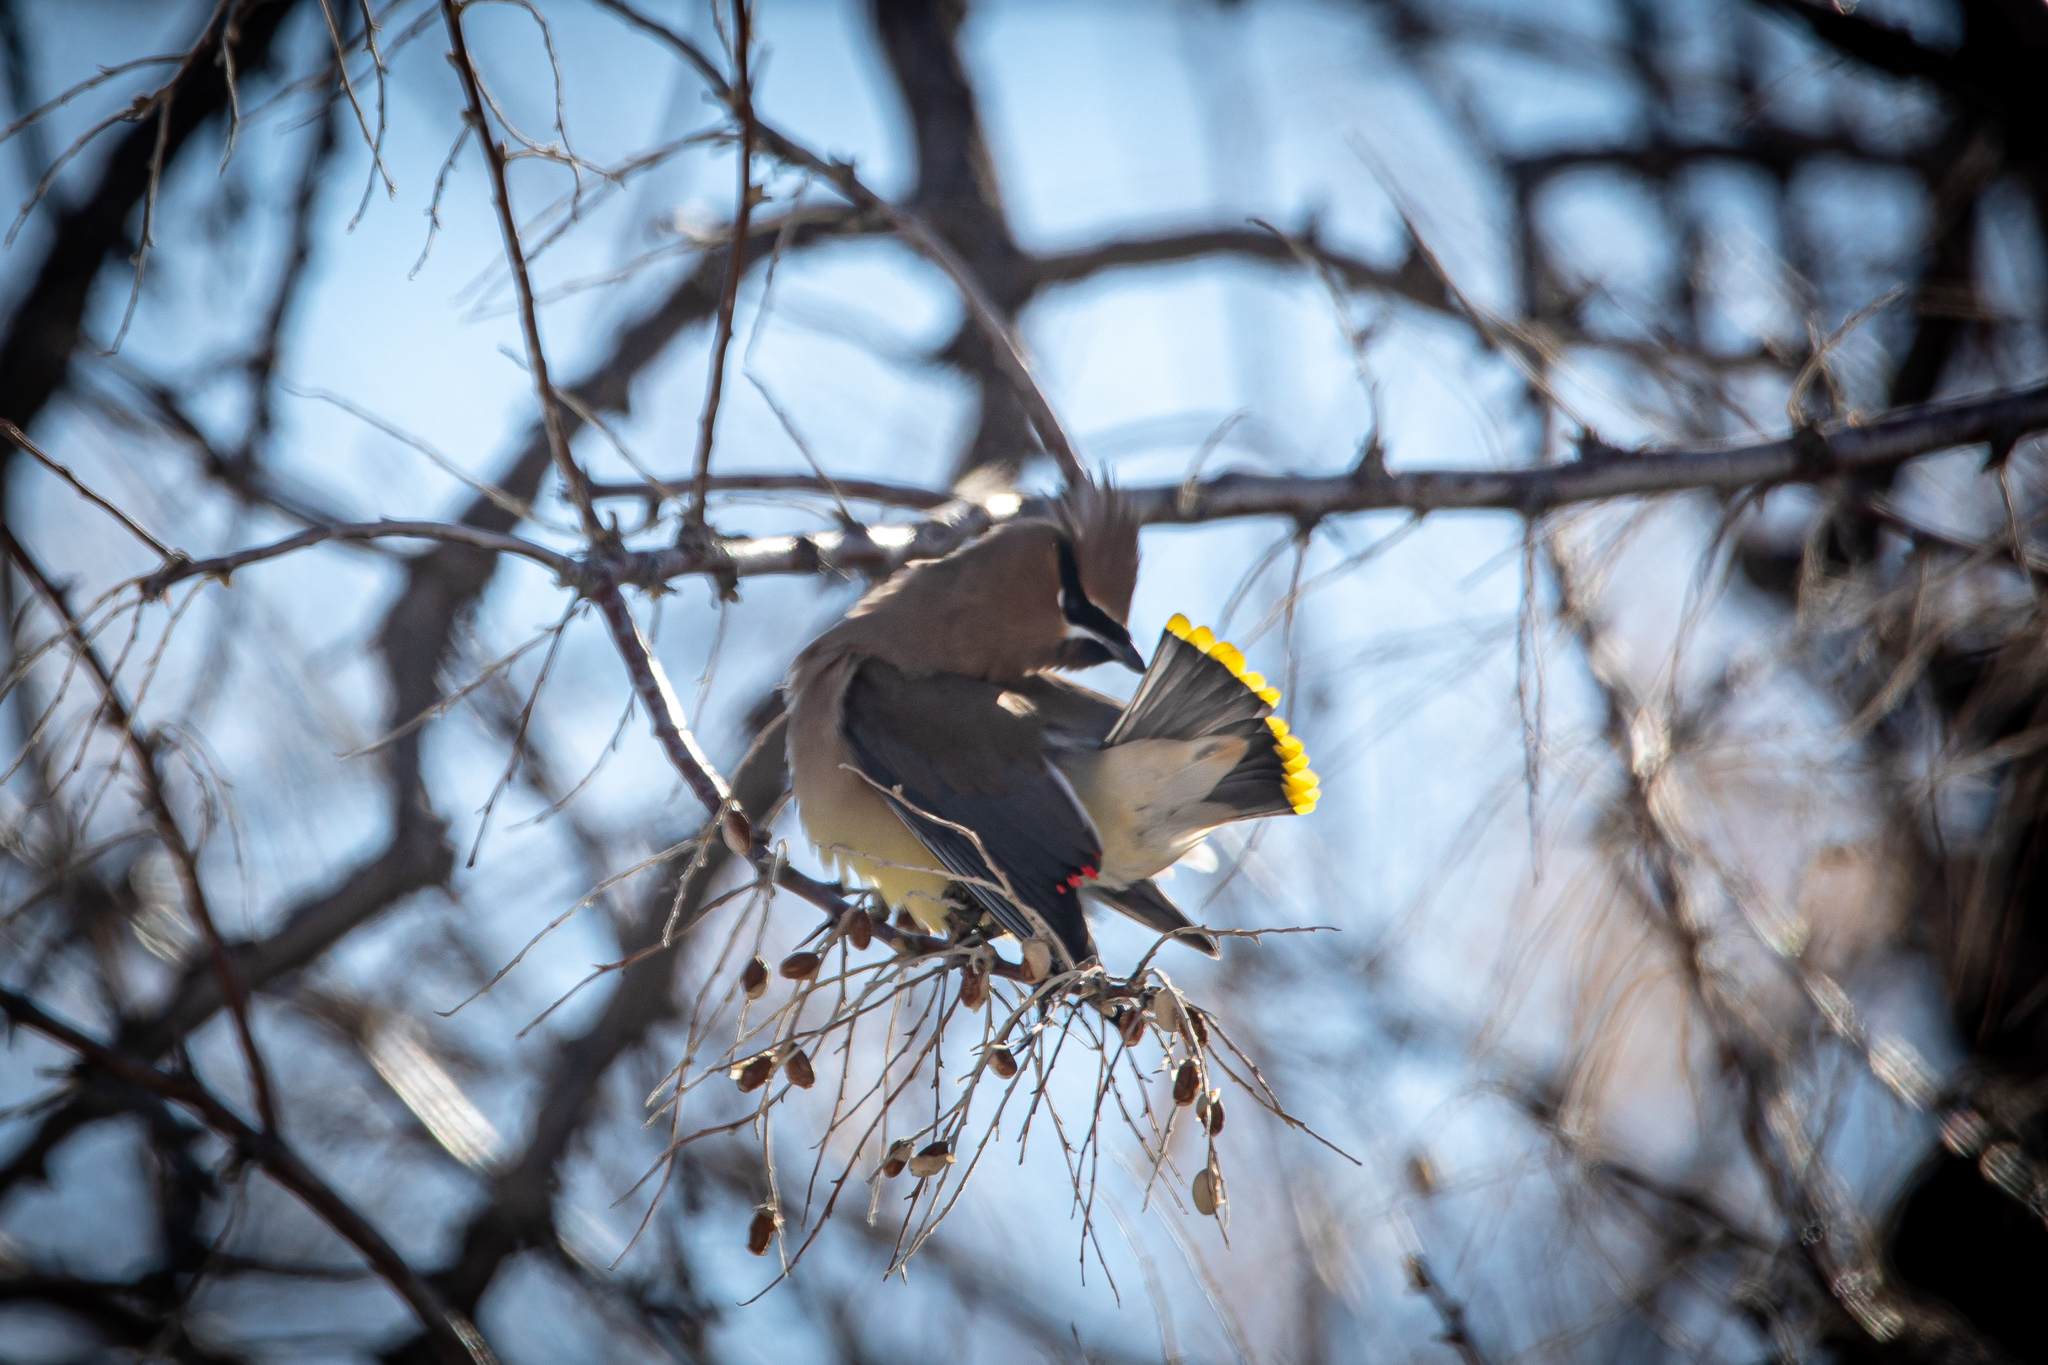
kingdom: Animalia
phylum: Chordata
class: Aves
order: Passeriformes
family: Bombycillidae
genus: Bombycilla
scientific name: Bombycilla cedrorum
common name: Cedar waxwing
